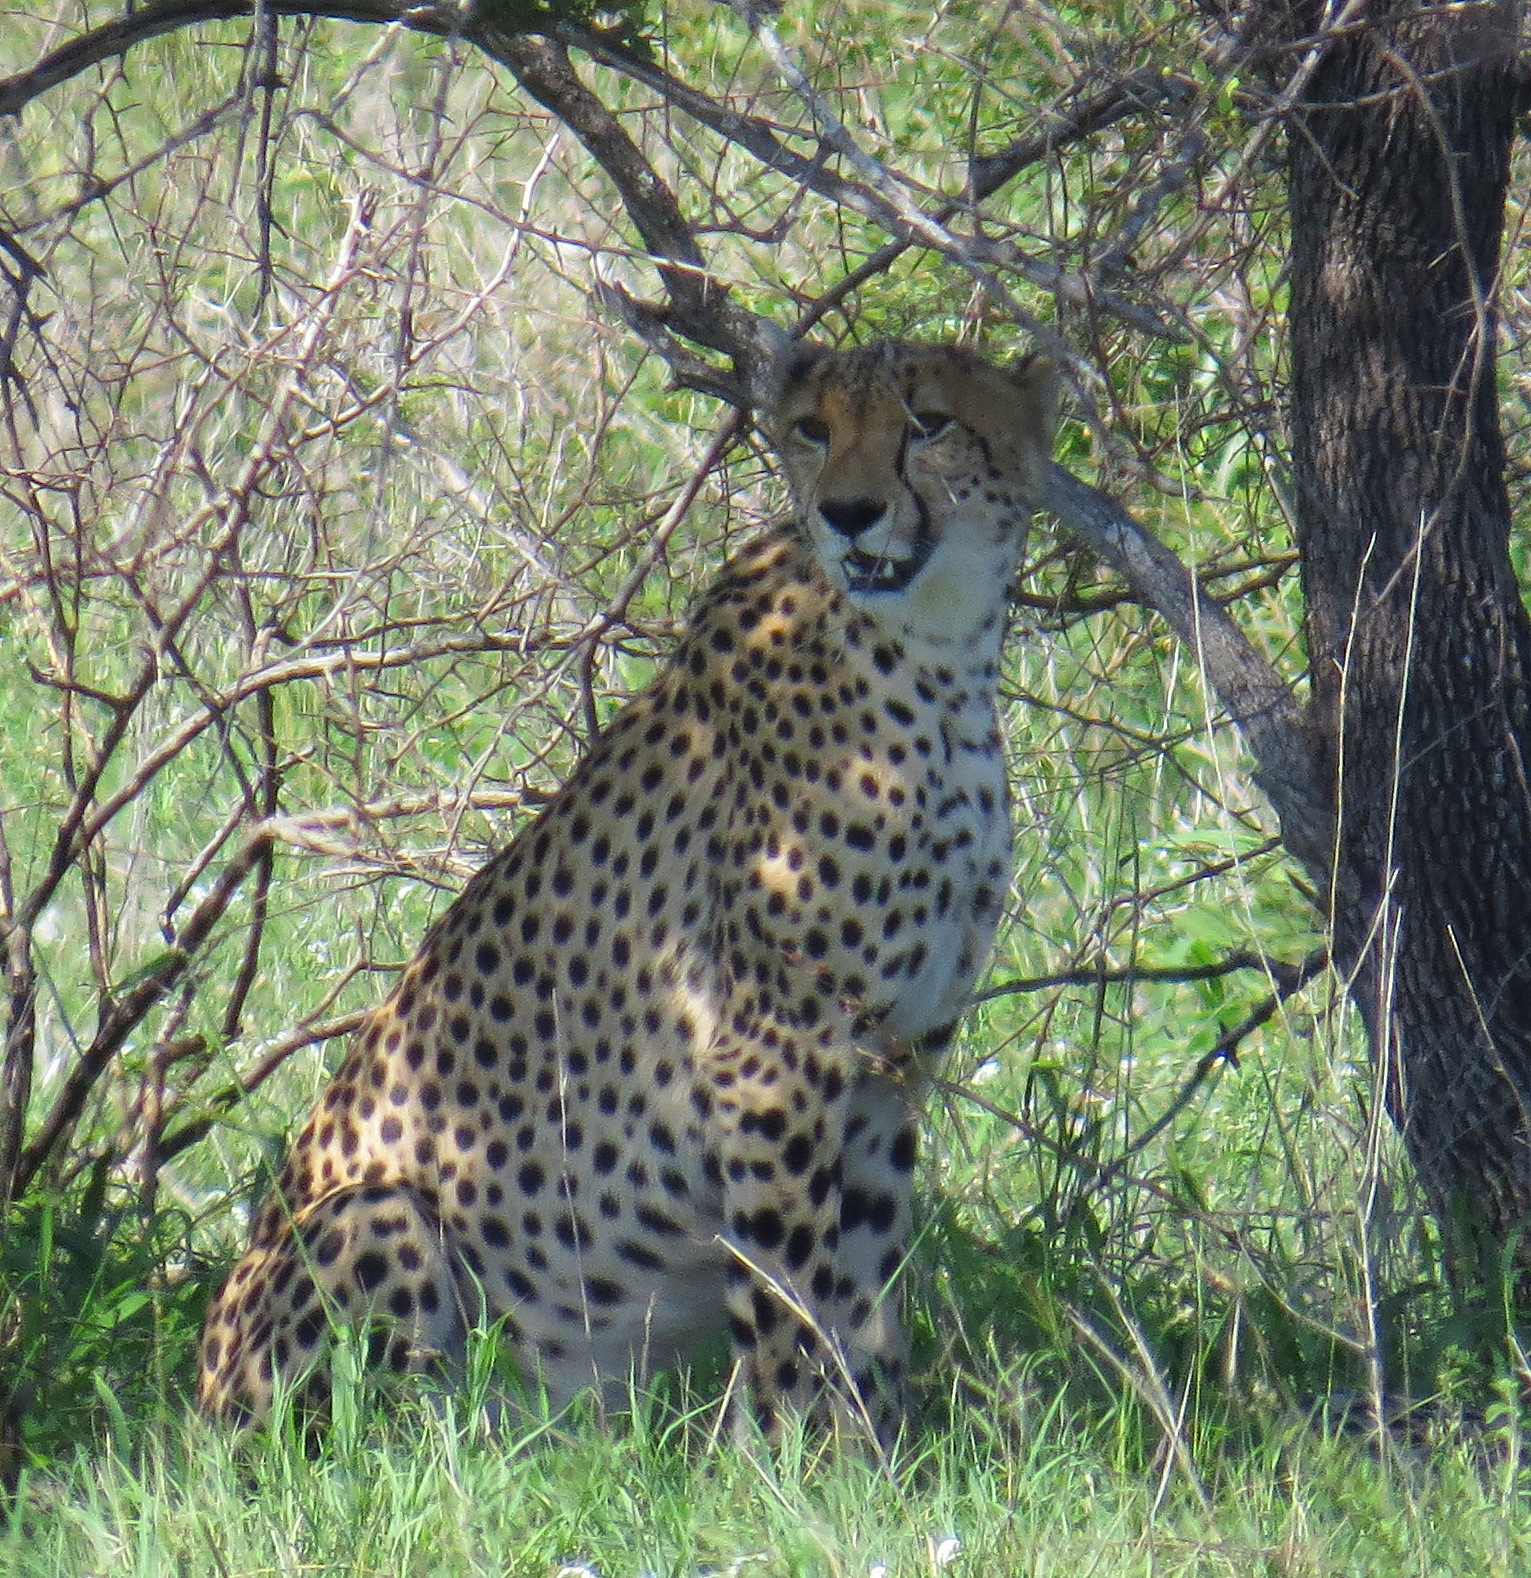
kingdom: Animalia
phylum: Chordata
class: Mammalia
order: Carnivora
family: Felidae
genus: Acinonyx
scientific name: Acinonyx jubatus
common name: Cheetah
